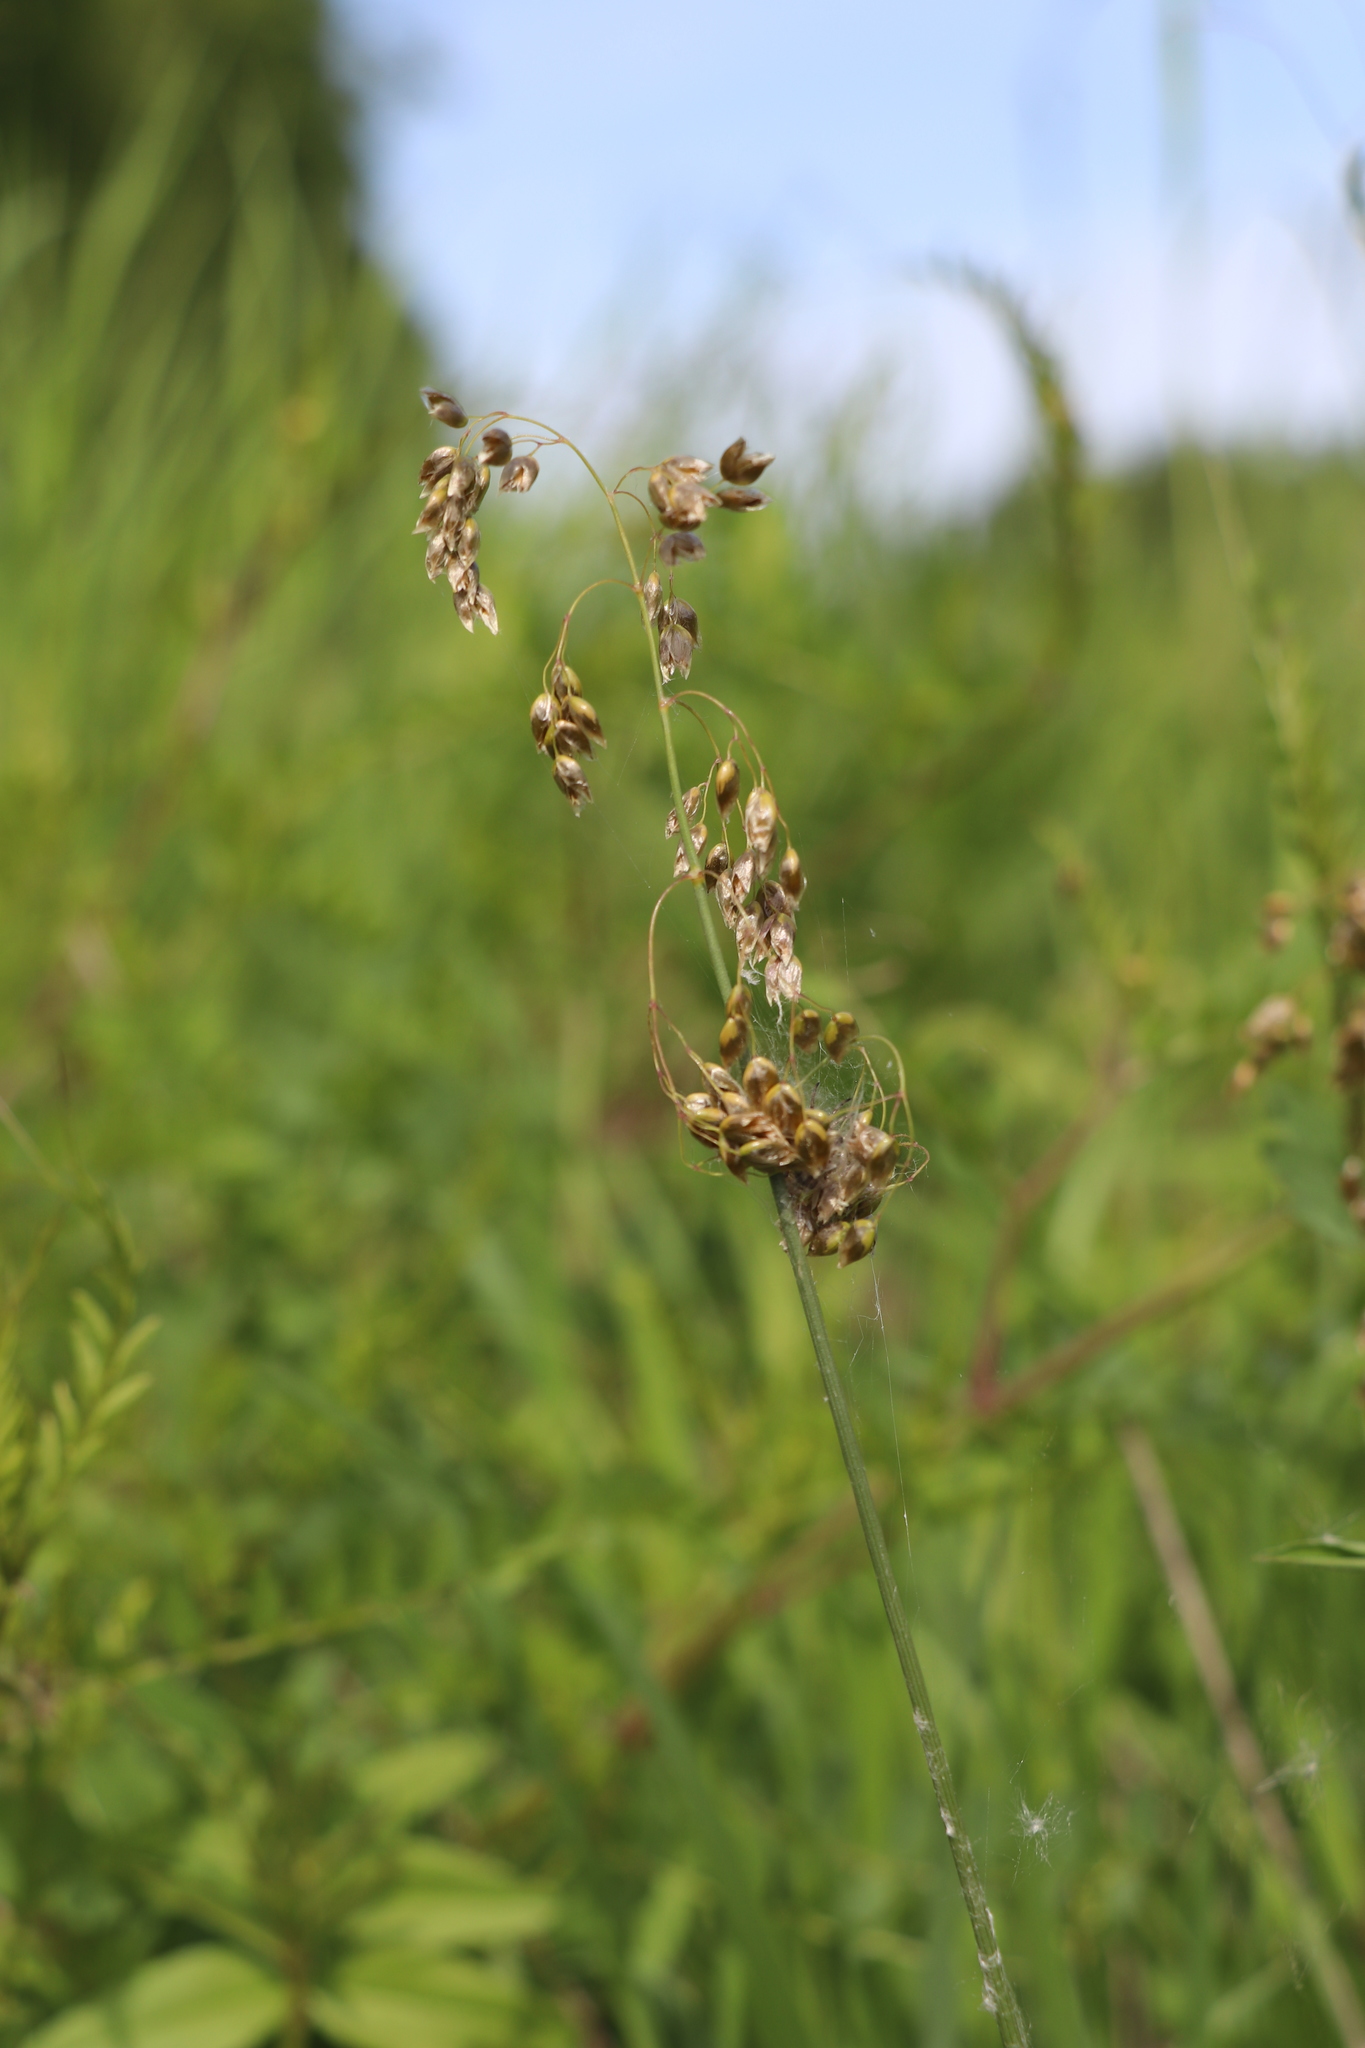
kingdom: Plantae
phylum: Tracheophyta
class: Liliopsida
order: Poales
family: Poaceae
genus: Anthoxanthum
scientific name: Anthoxanthum nitens
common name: Holy grass
